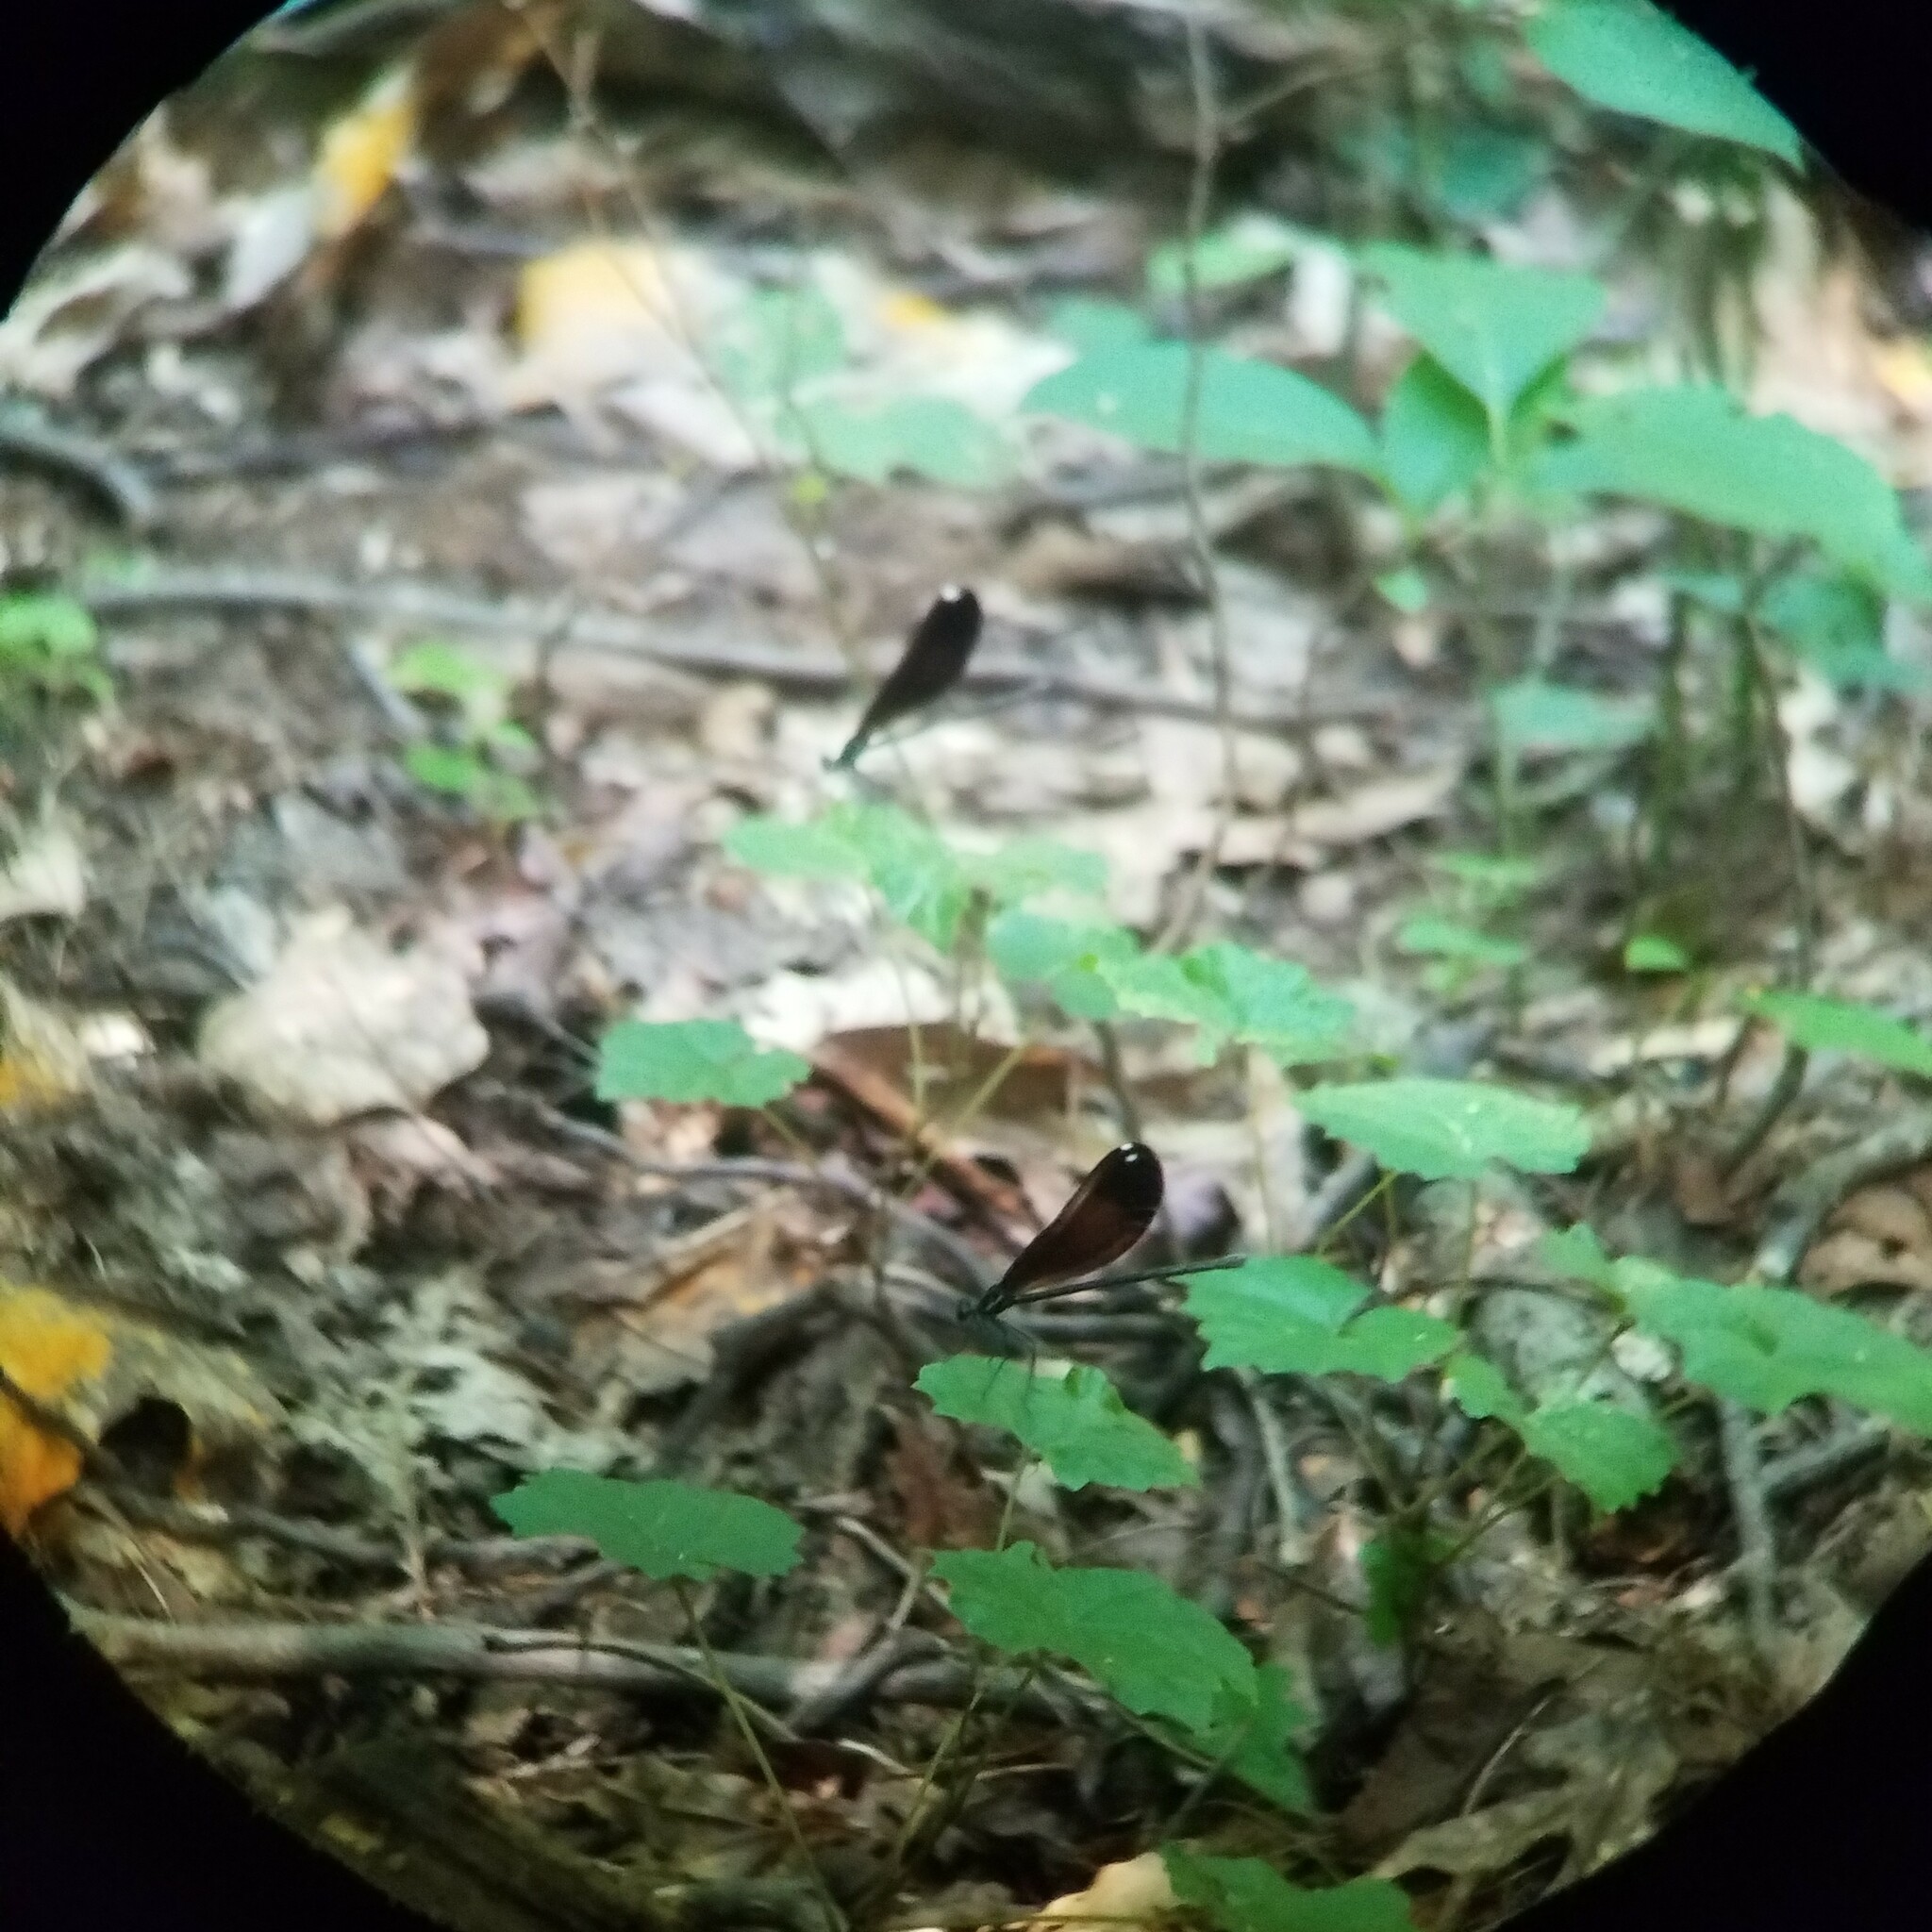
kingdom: Animalia
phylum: Arthropoda
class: Insecta
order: Odonata
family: Calopterygidae
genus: Calopteryx
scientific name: Calopteryx maculata
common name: Ebony jewelwing
